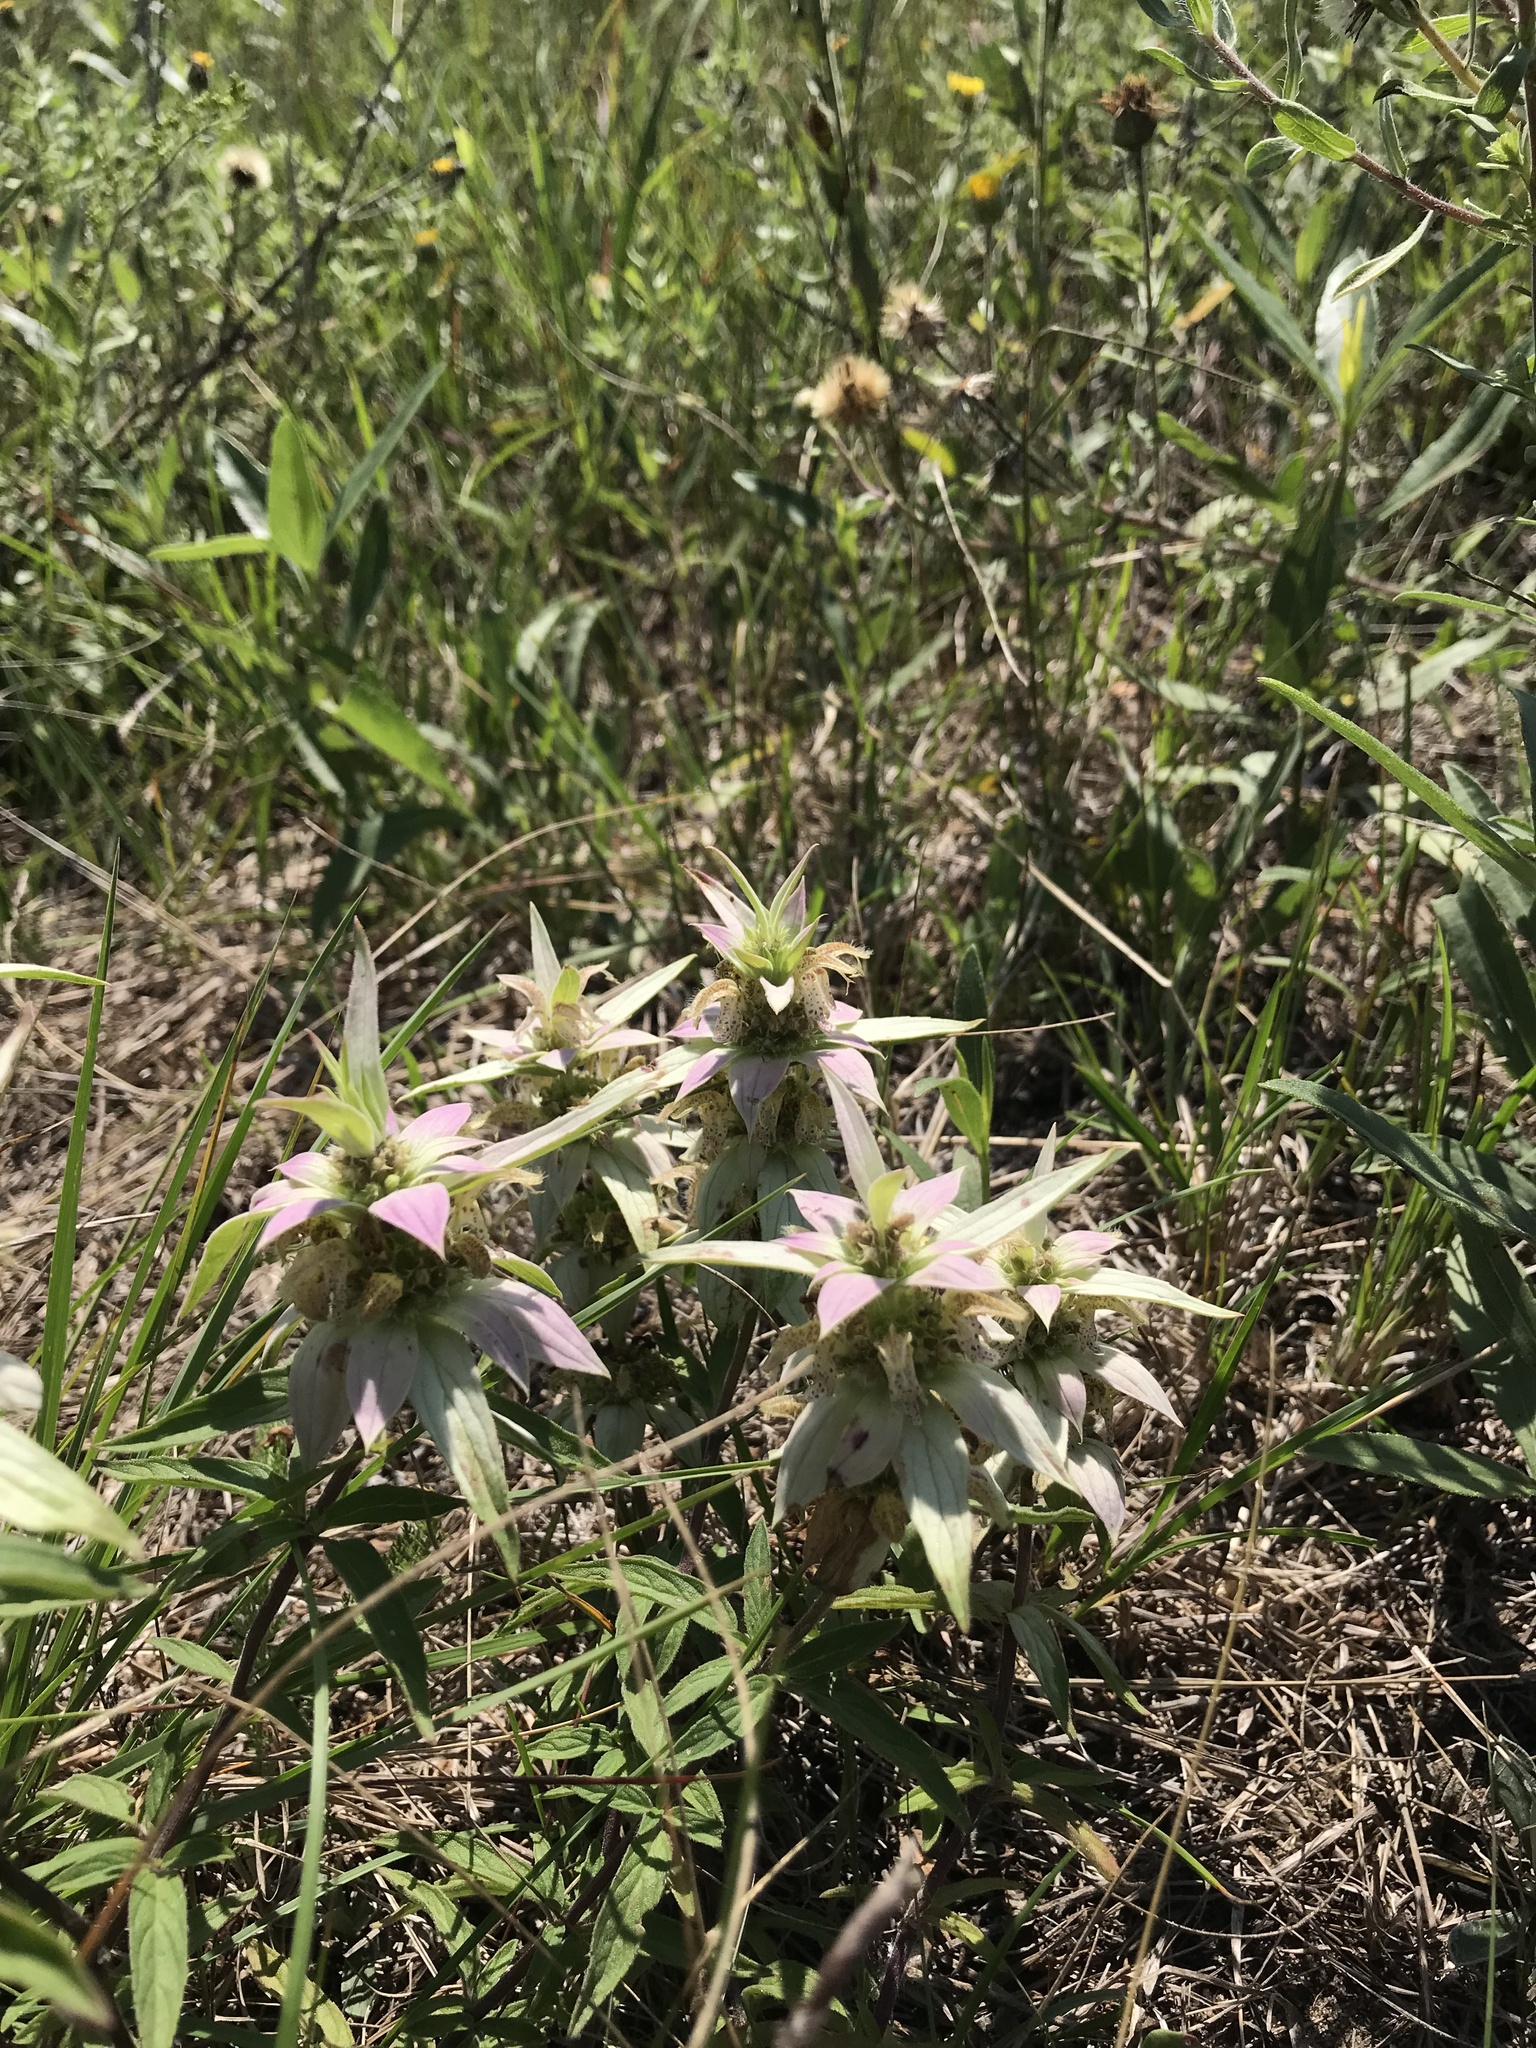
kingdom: Plantae
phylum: Tracheophyta
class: Magnoliopsida
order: Lamiales
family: Lamiaceae
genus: Monarda
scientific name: Monarda punctata
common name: Dotted monarda
